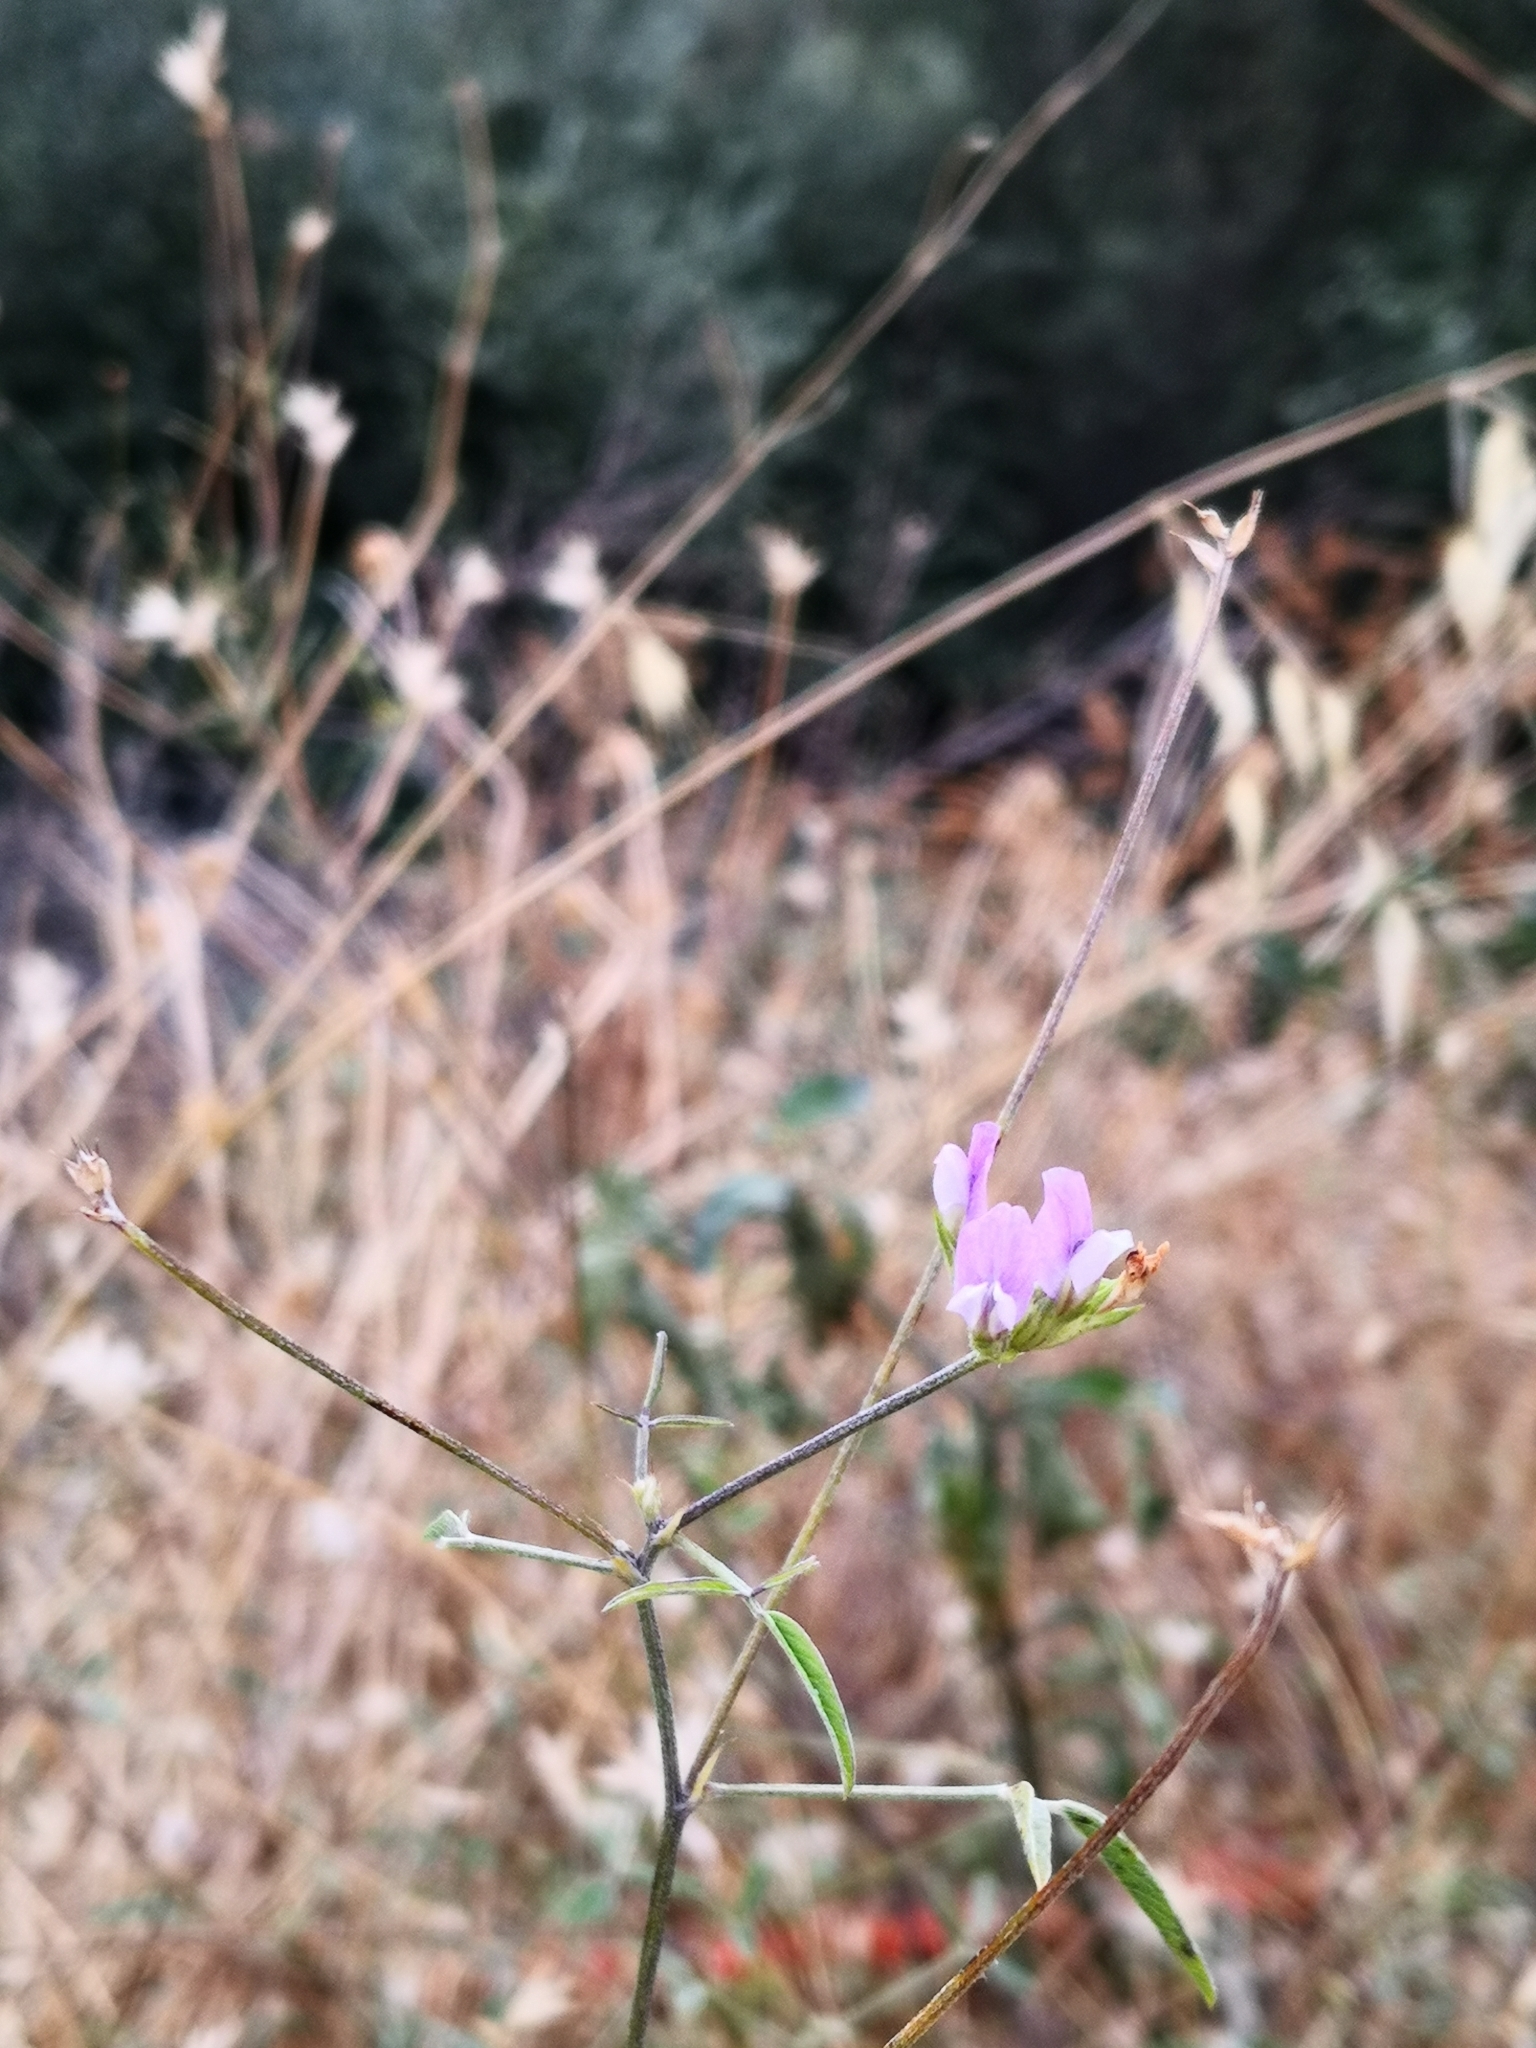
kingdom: Plantae
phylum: Tracheophyta
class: Magnoliopsida
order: Fabales
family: Fabaceae
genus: Bituminaria
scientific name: Bituminaria bituminosa
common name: Arabian pea
